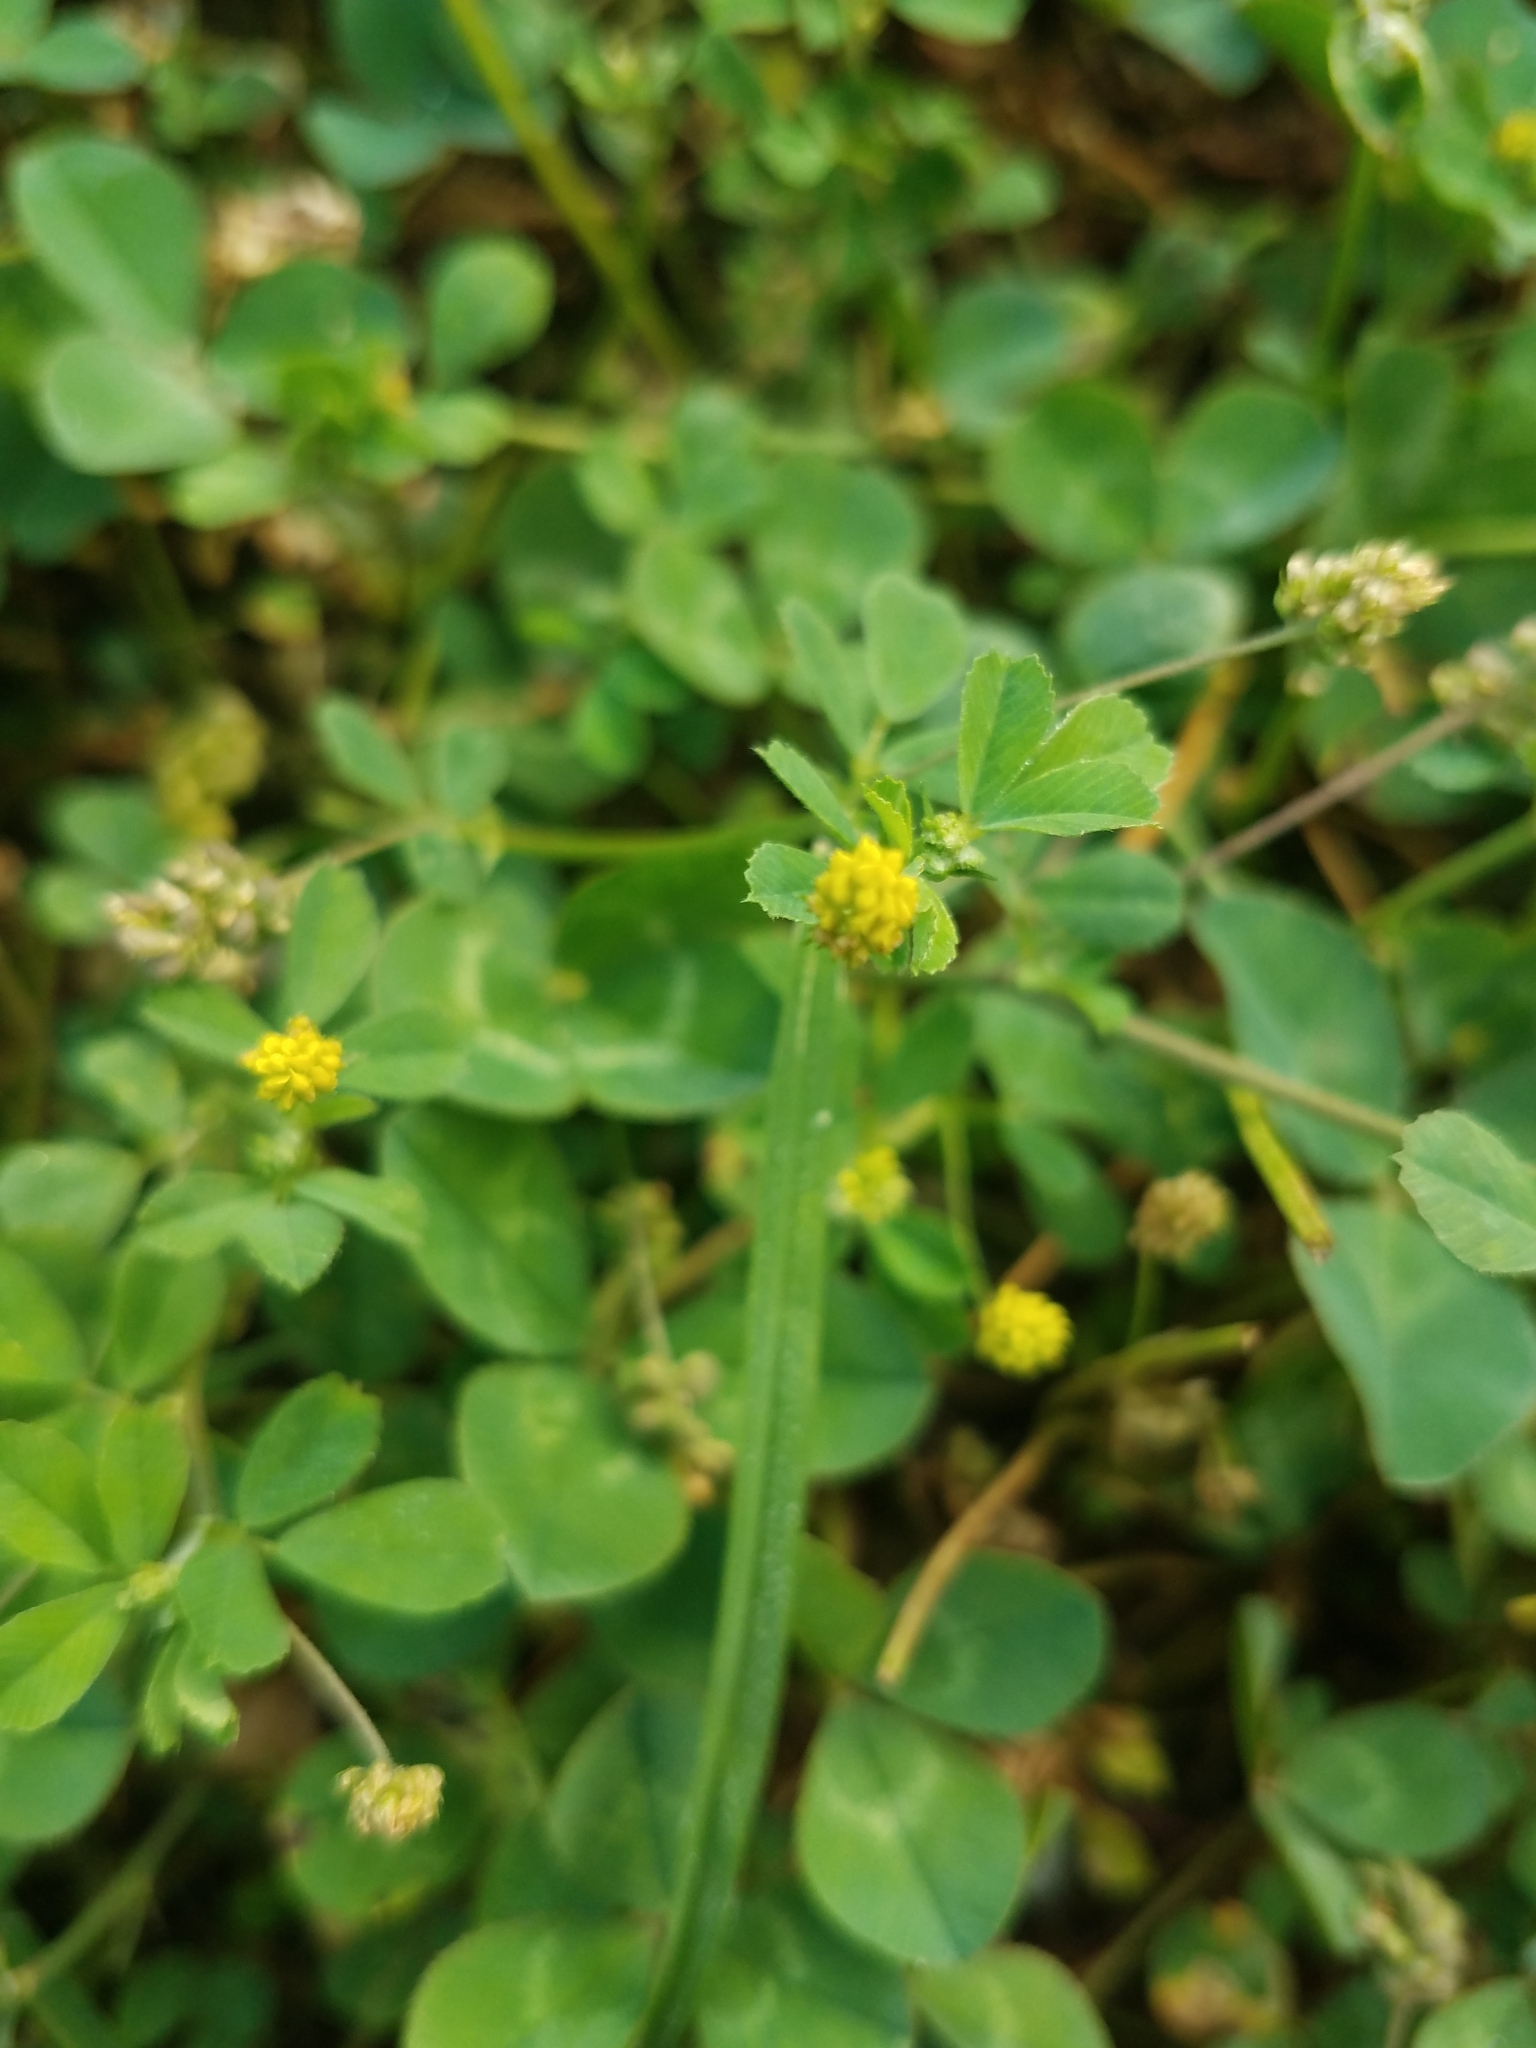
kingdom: Plantae
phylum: Tracheophyta
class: Magnoliopsida
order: Fabales
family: Fabaceae
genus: Medicago
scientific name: Medicago lupulina
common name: Black medick
